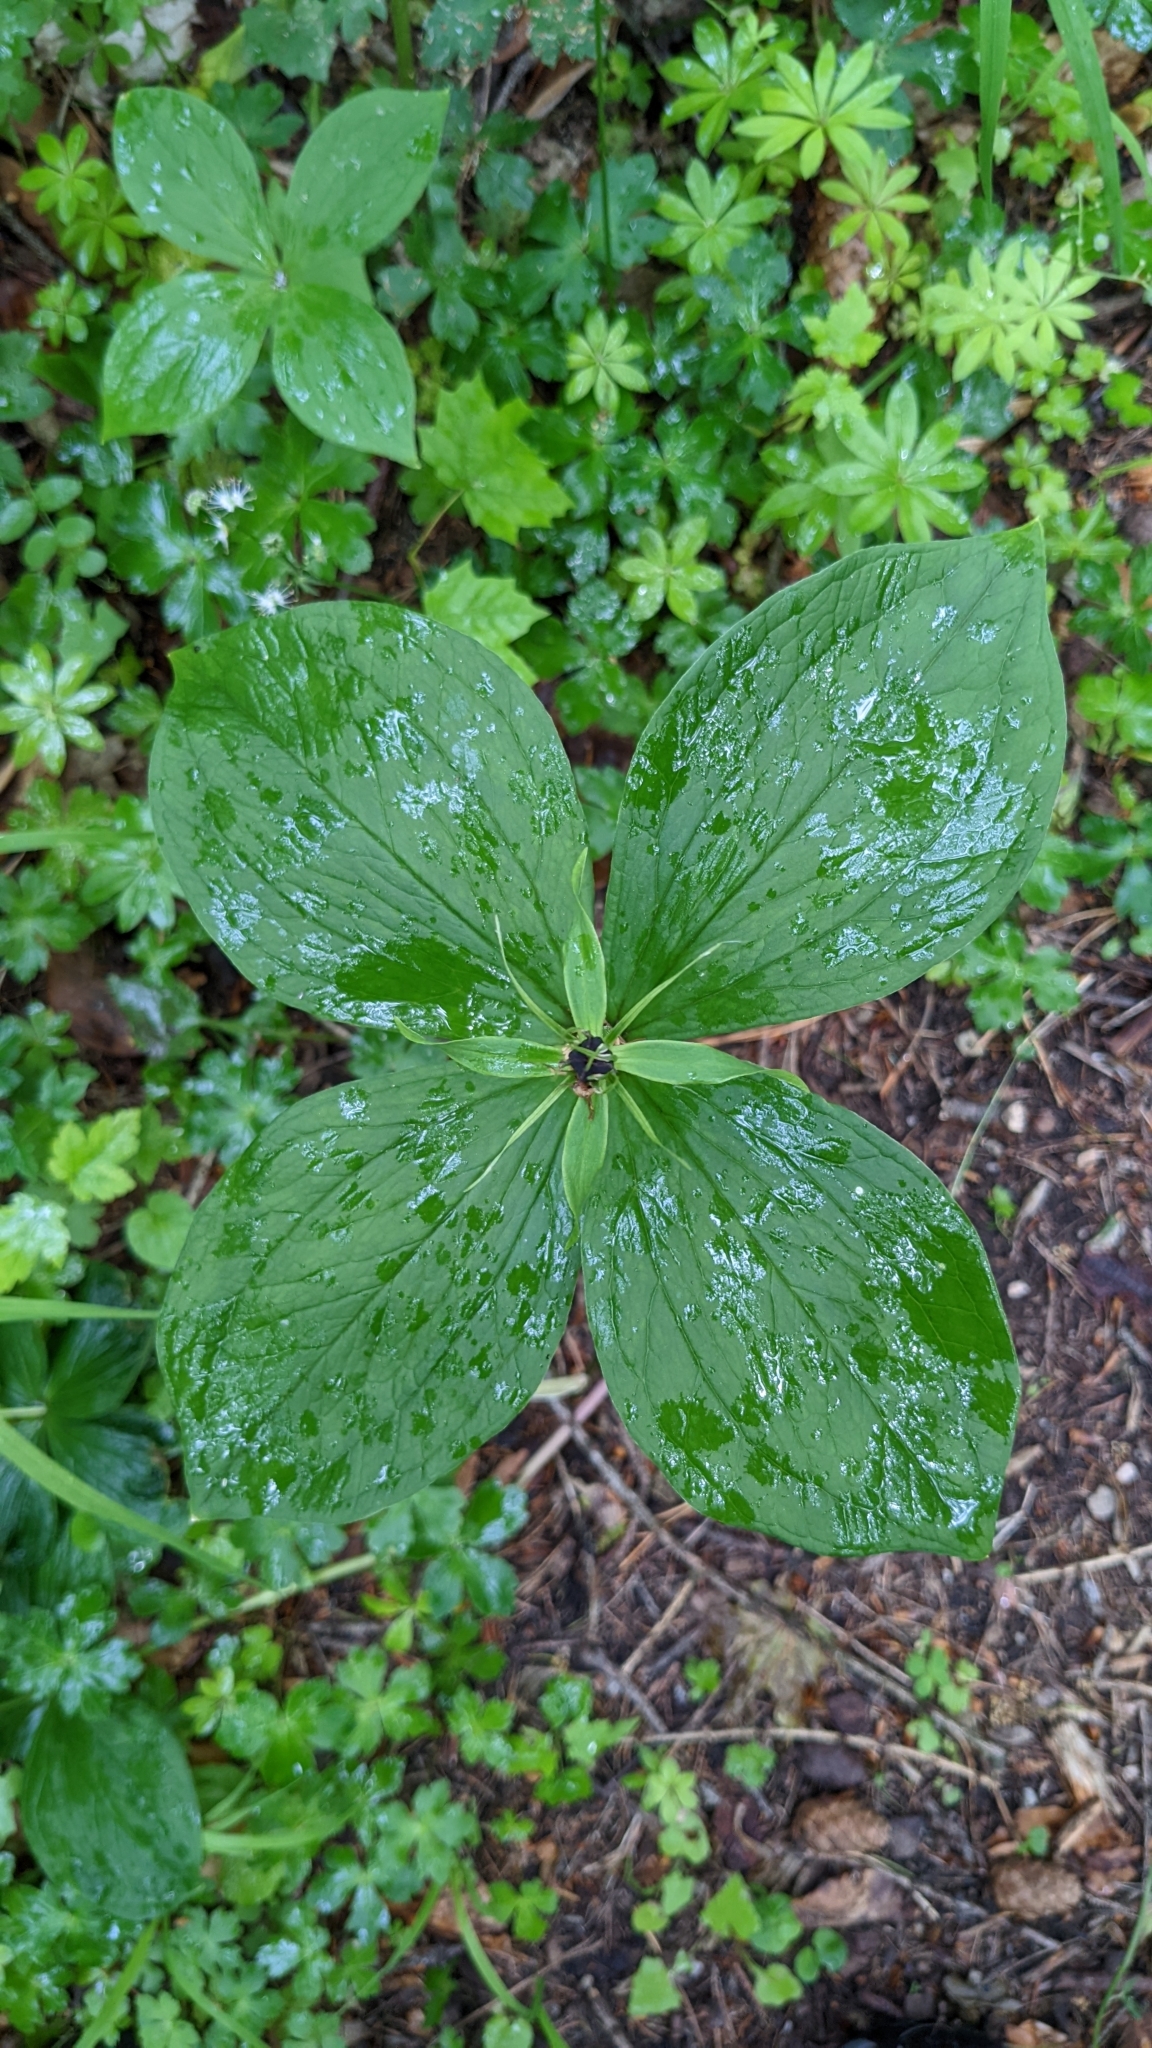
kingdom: Plantae
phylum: Tracheophyta
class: Liliopsida
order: Liliales
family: Melanthiaceae
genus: Paris
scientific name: Paris quadrifolia
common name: Herb-paris
